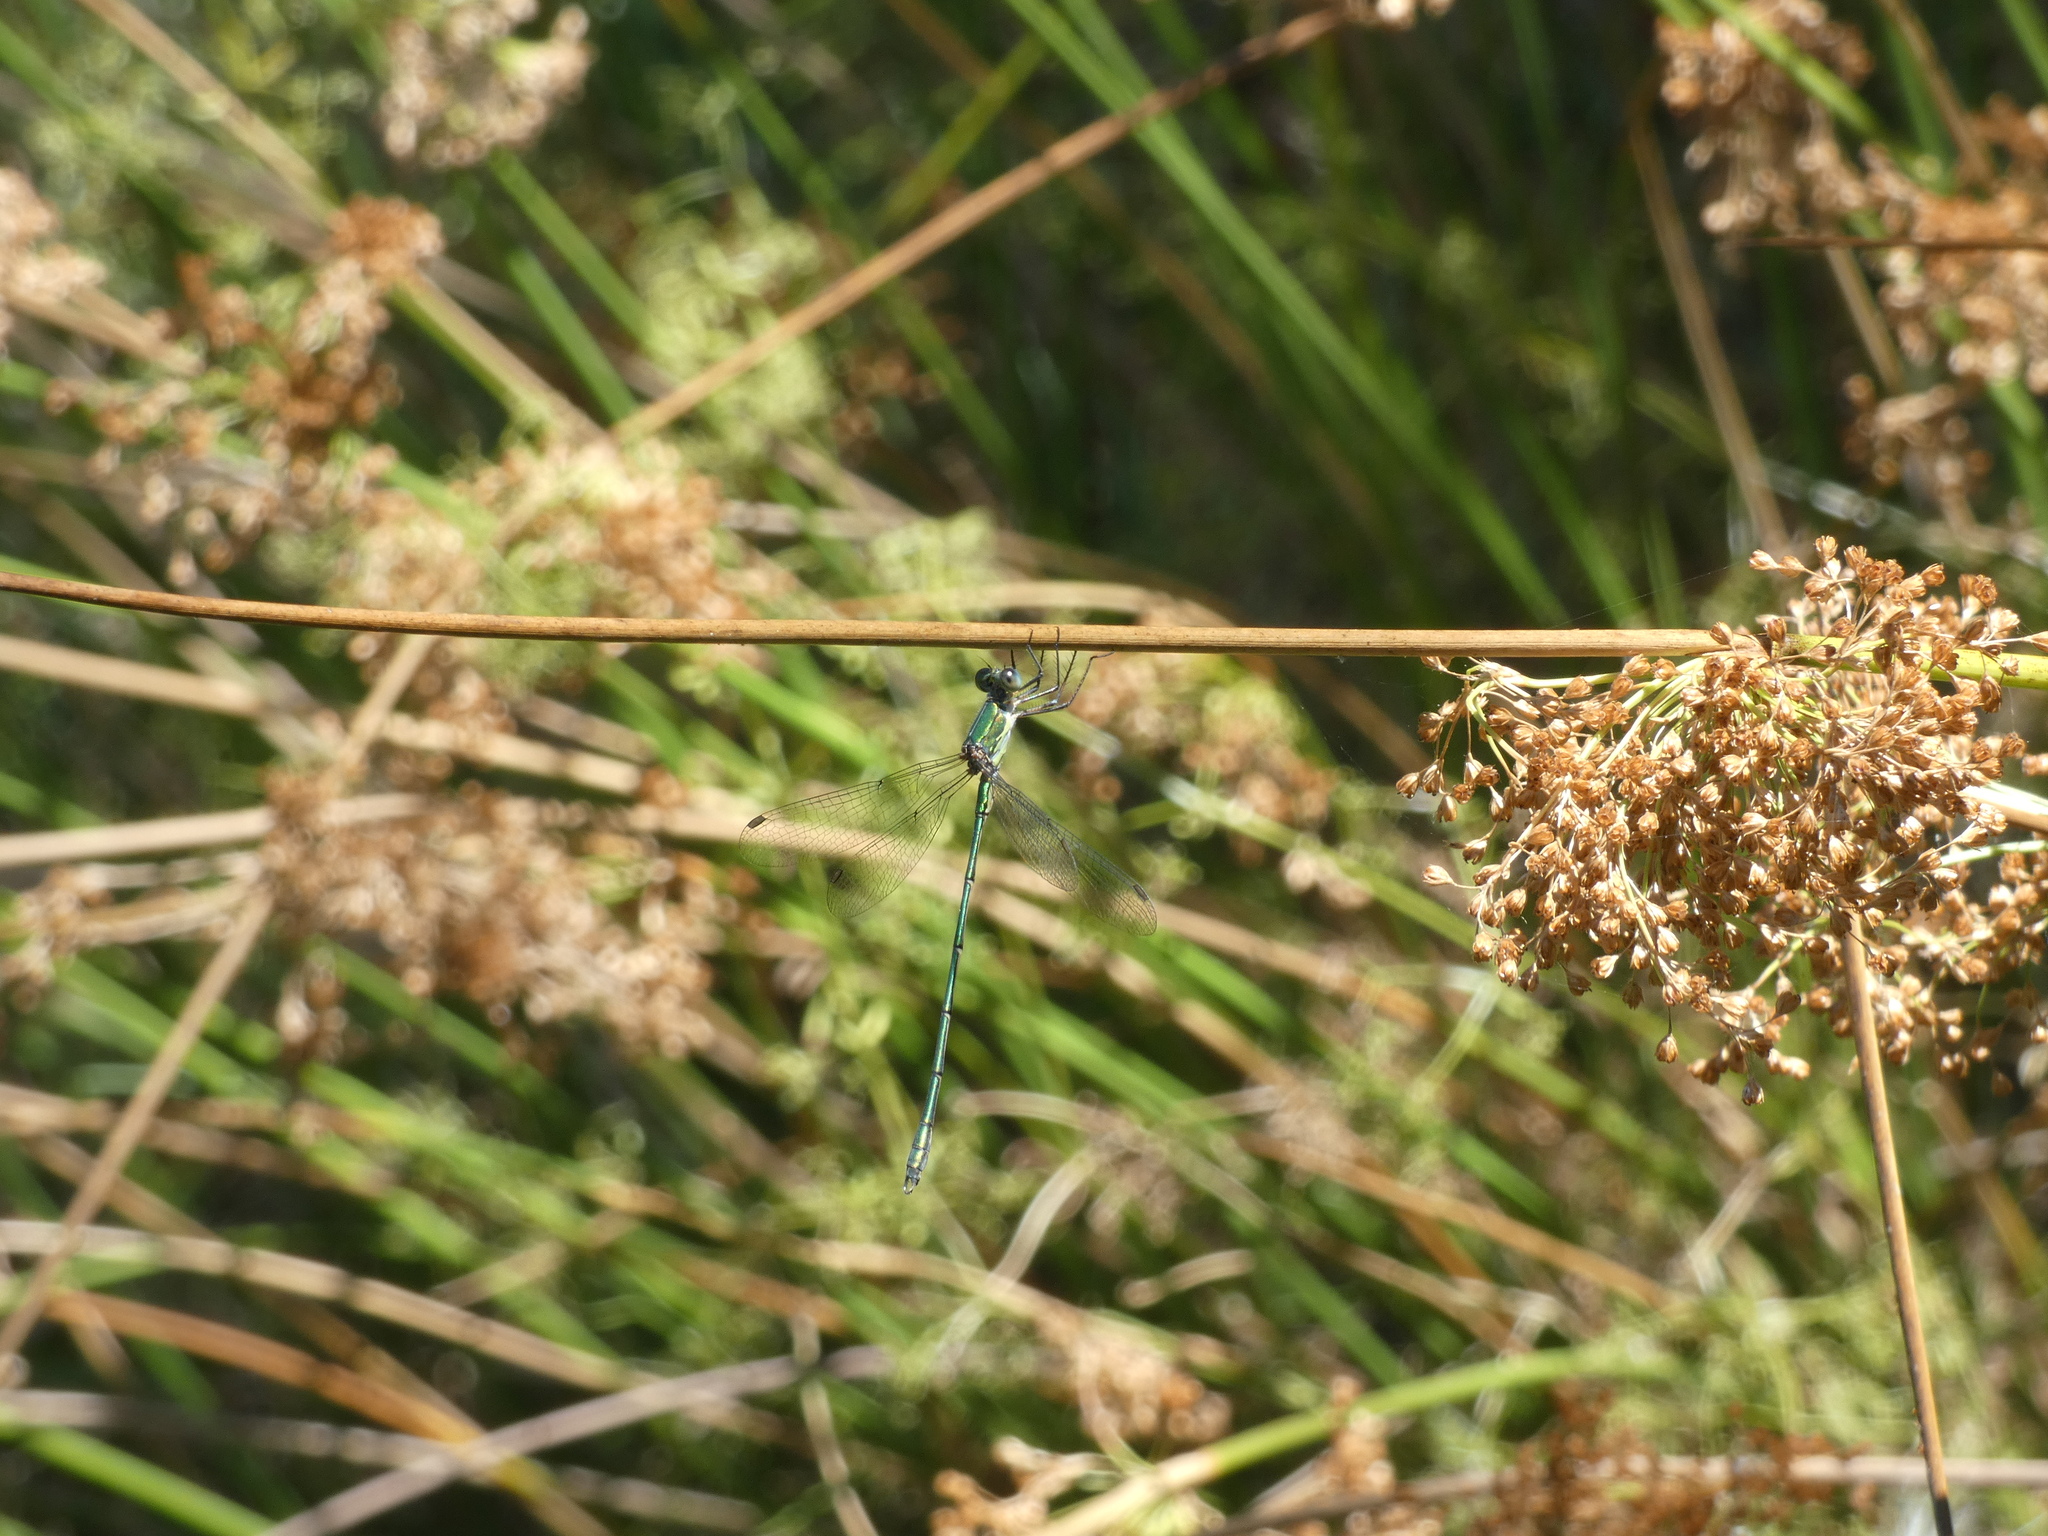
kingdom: Animalia
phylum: Arthropoda
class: Insecta
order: Odonata
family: Lestidae
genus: Chalcolestes
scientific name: Chalcolestes viridis
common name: Green emerald damselfly
